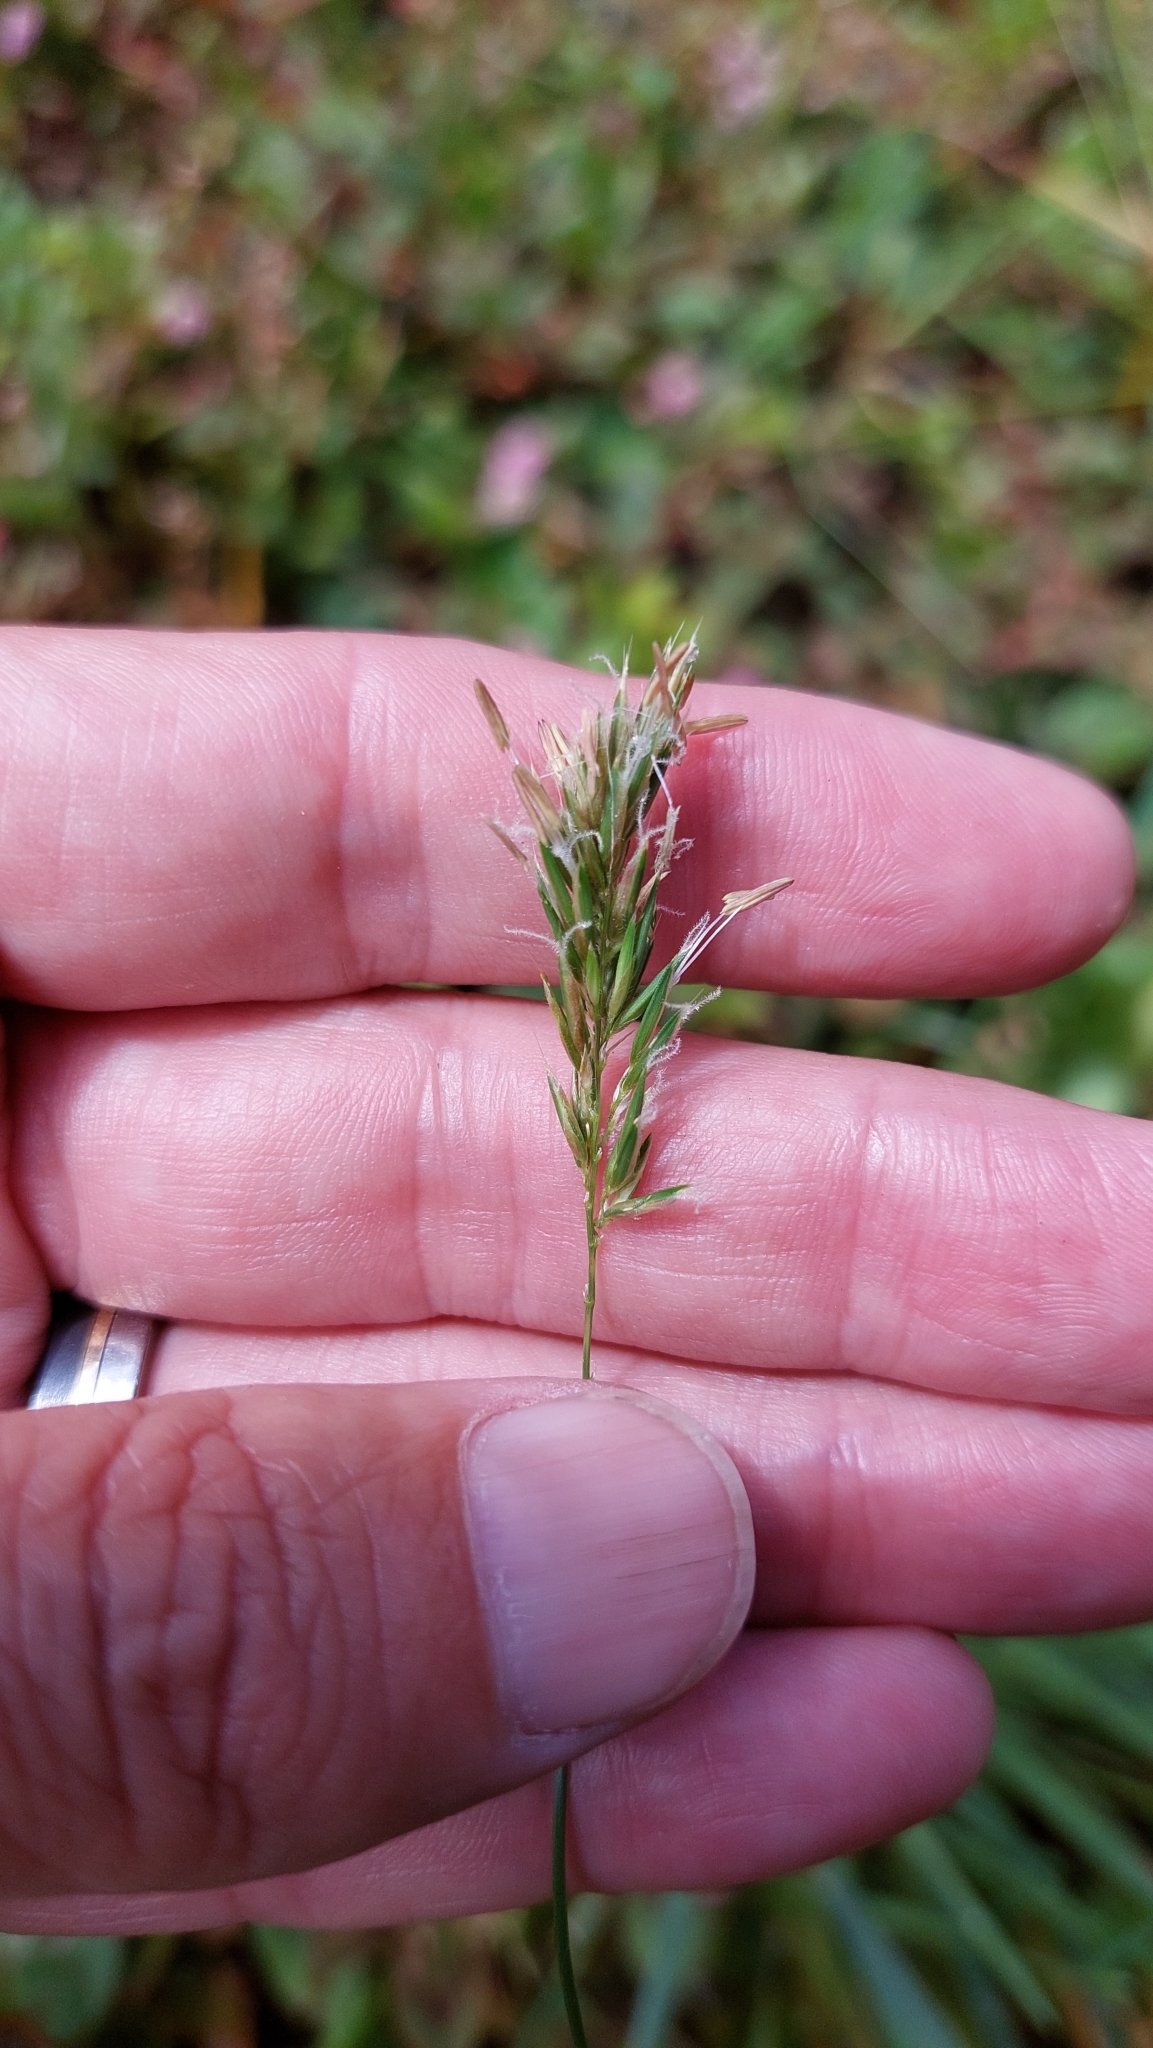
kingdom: Plantae
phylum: Tracheophyta
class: Liliopsida
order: Poales
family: Poaceae
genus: Anthoxanthum
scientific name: Anthoxanthum odoratum
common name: Sweet vernalgrass
